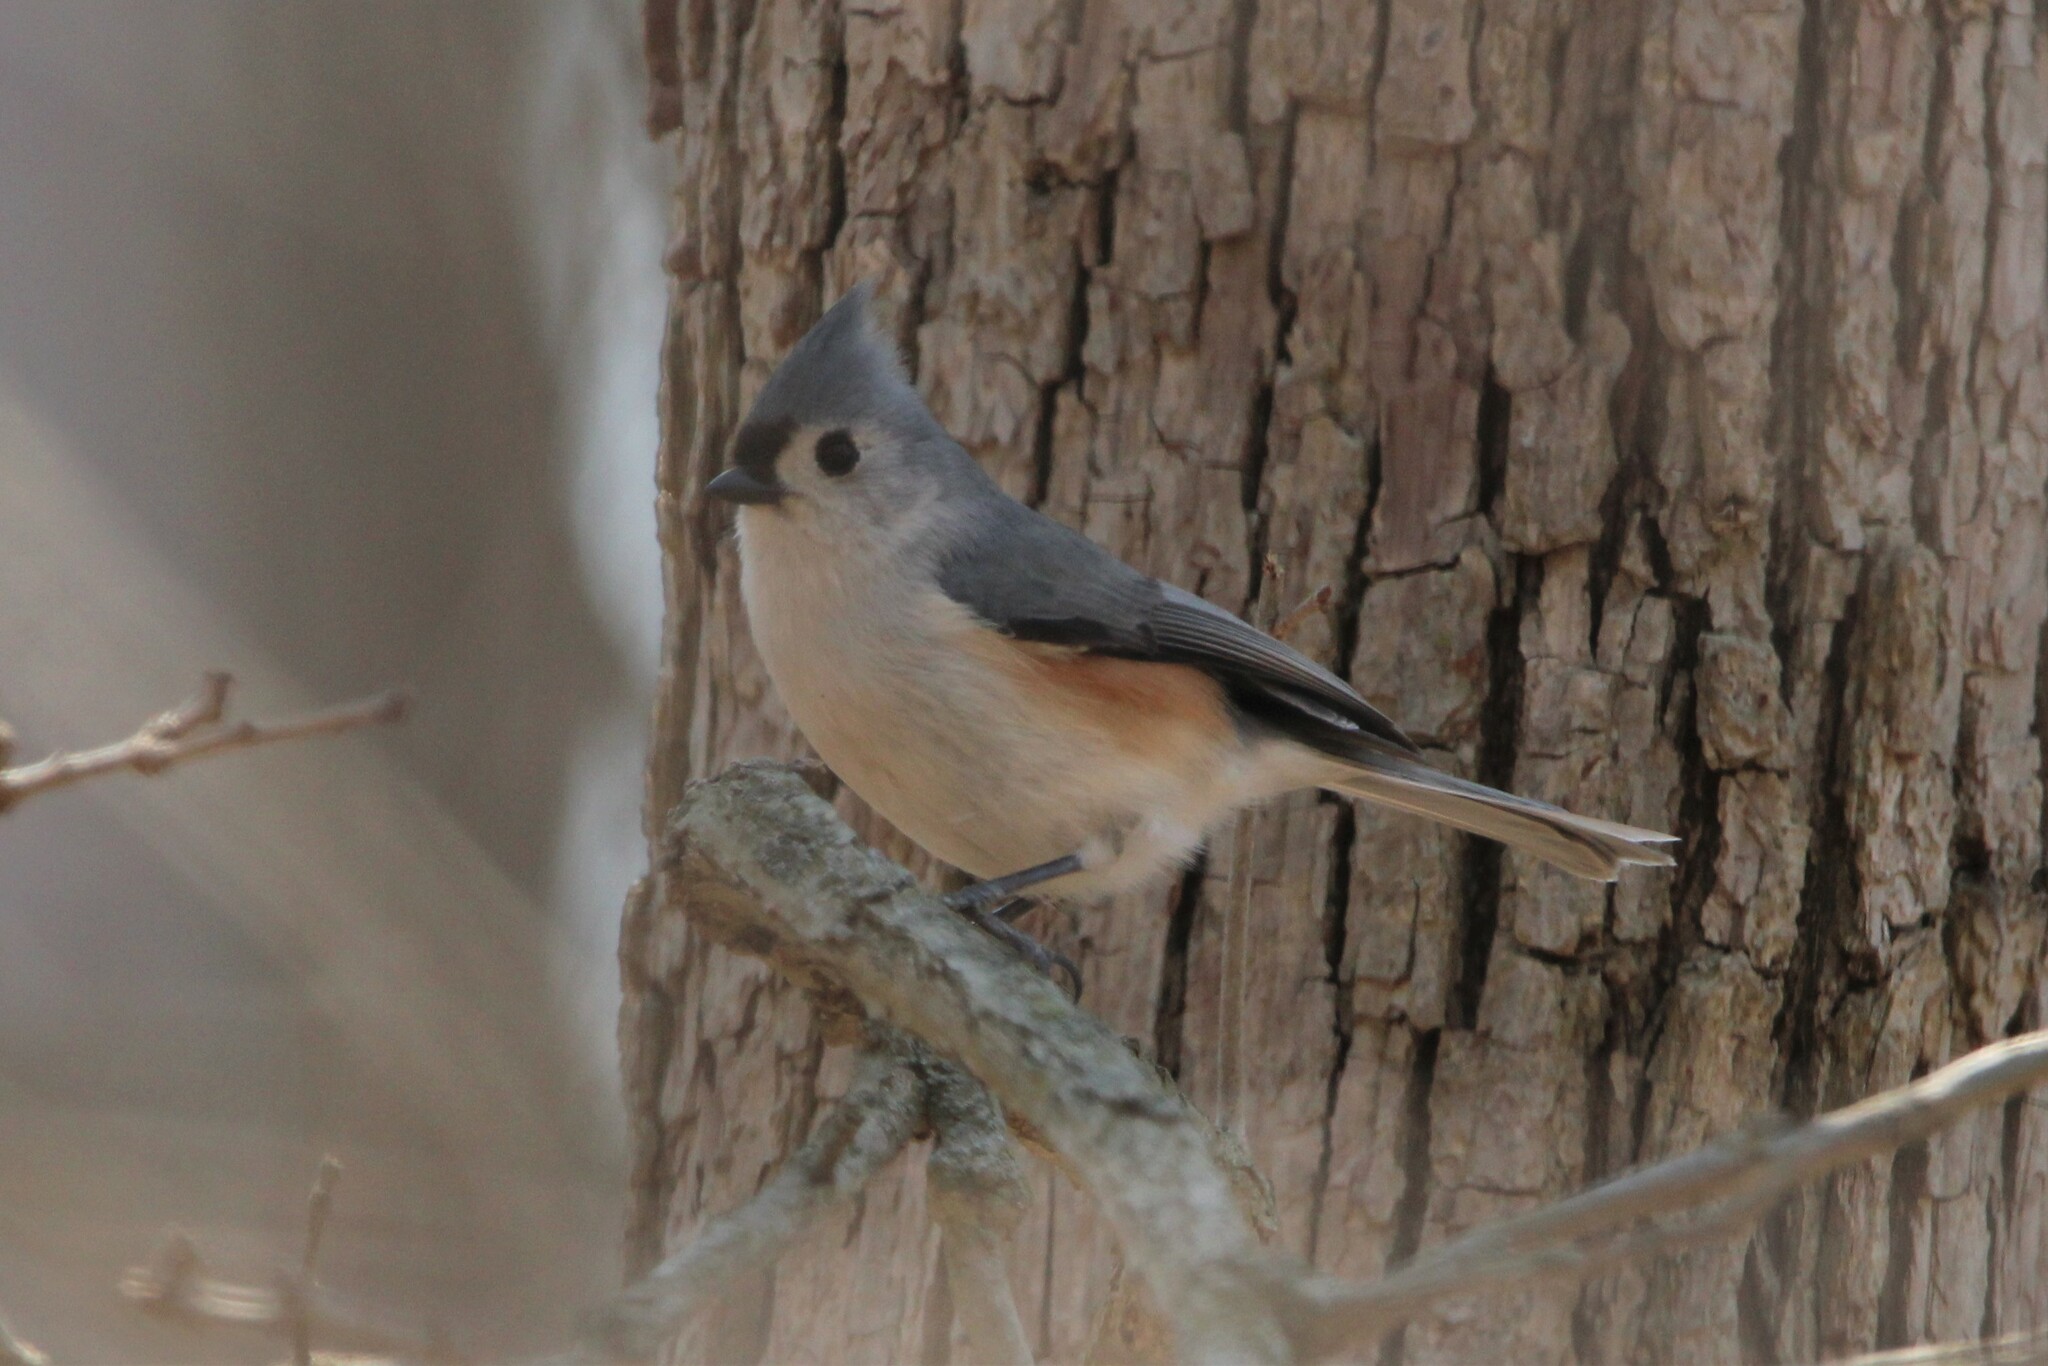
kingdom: Animalia
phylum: Chordata
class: Aves
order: Passeriformes
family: Paridae
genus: Baeolophus
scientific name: Baeolophus bicolor
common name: Tufted titmouse
